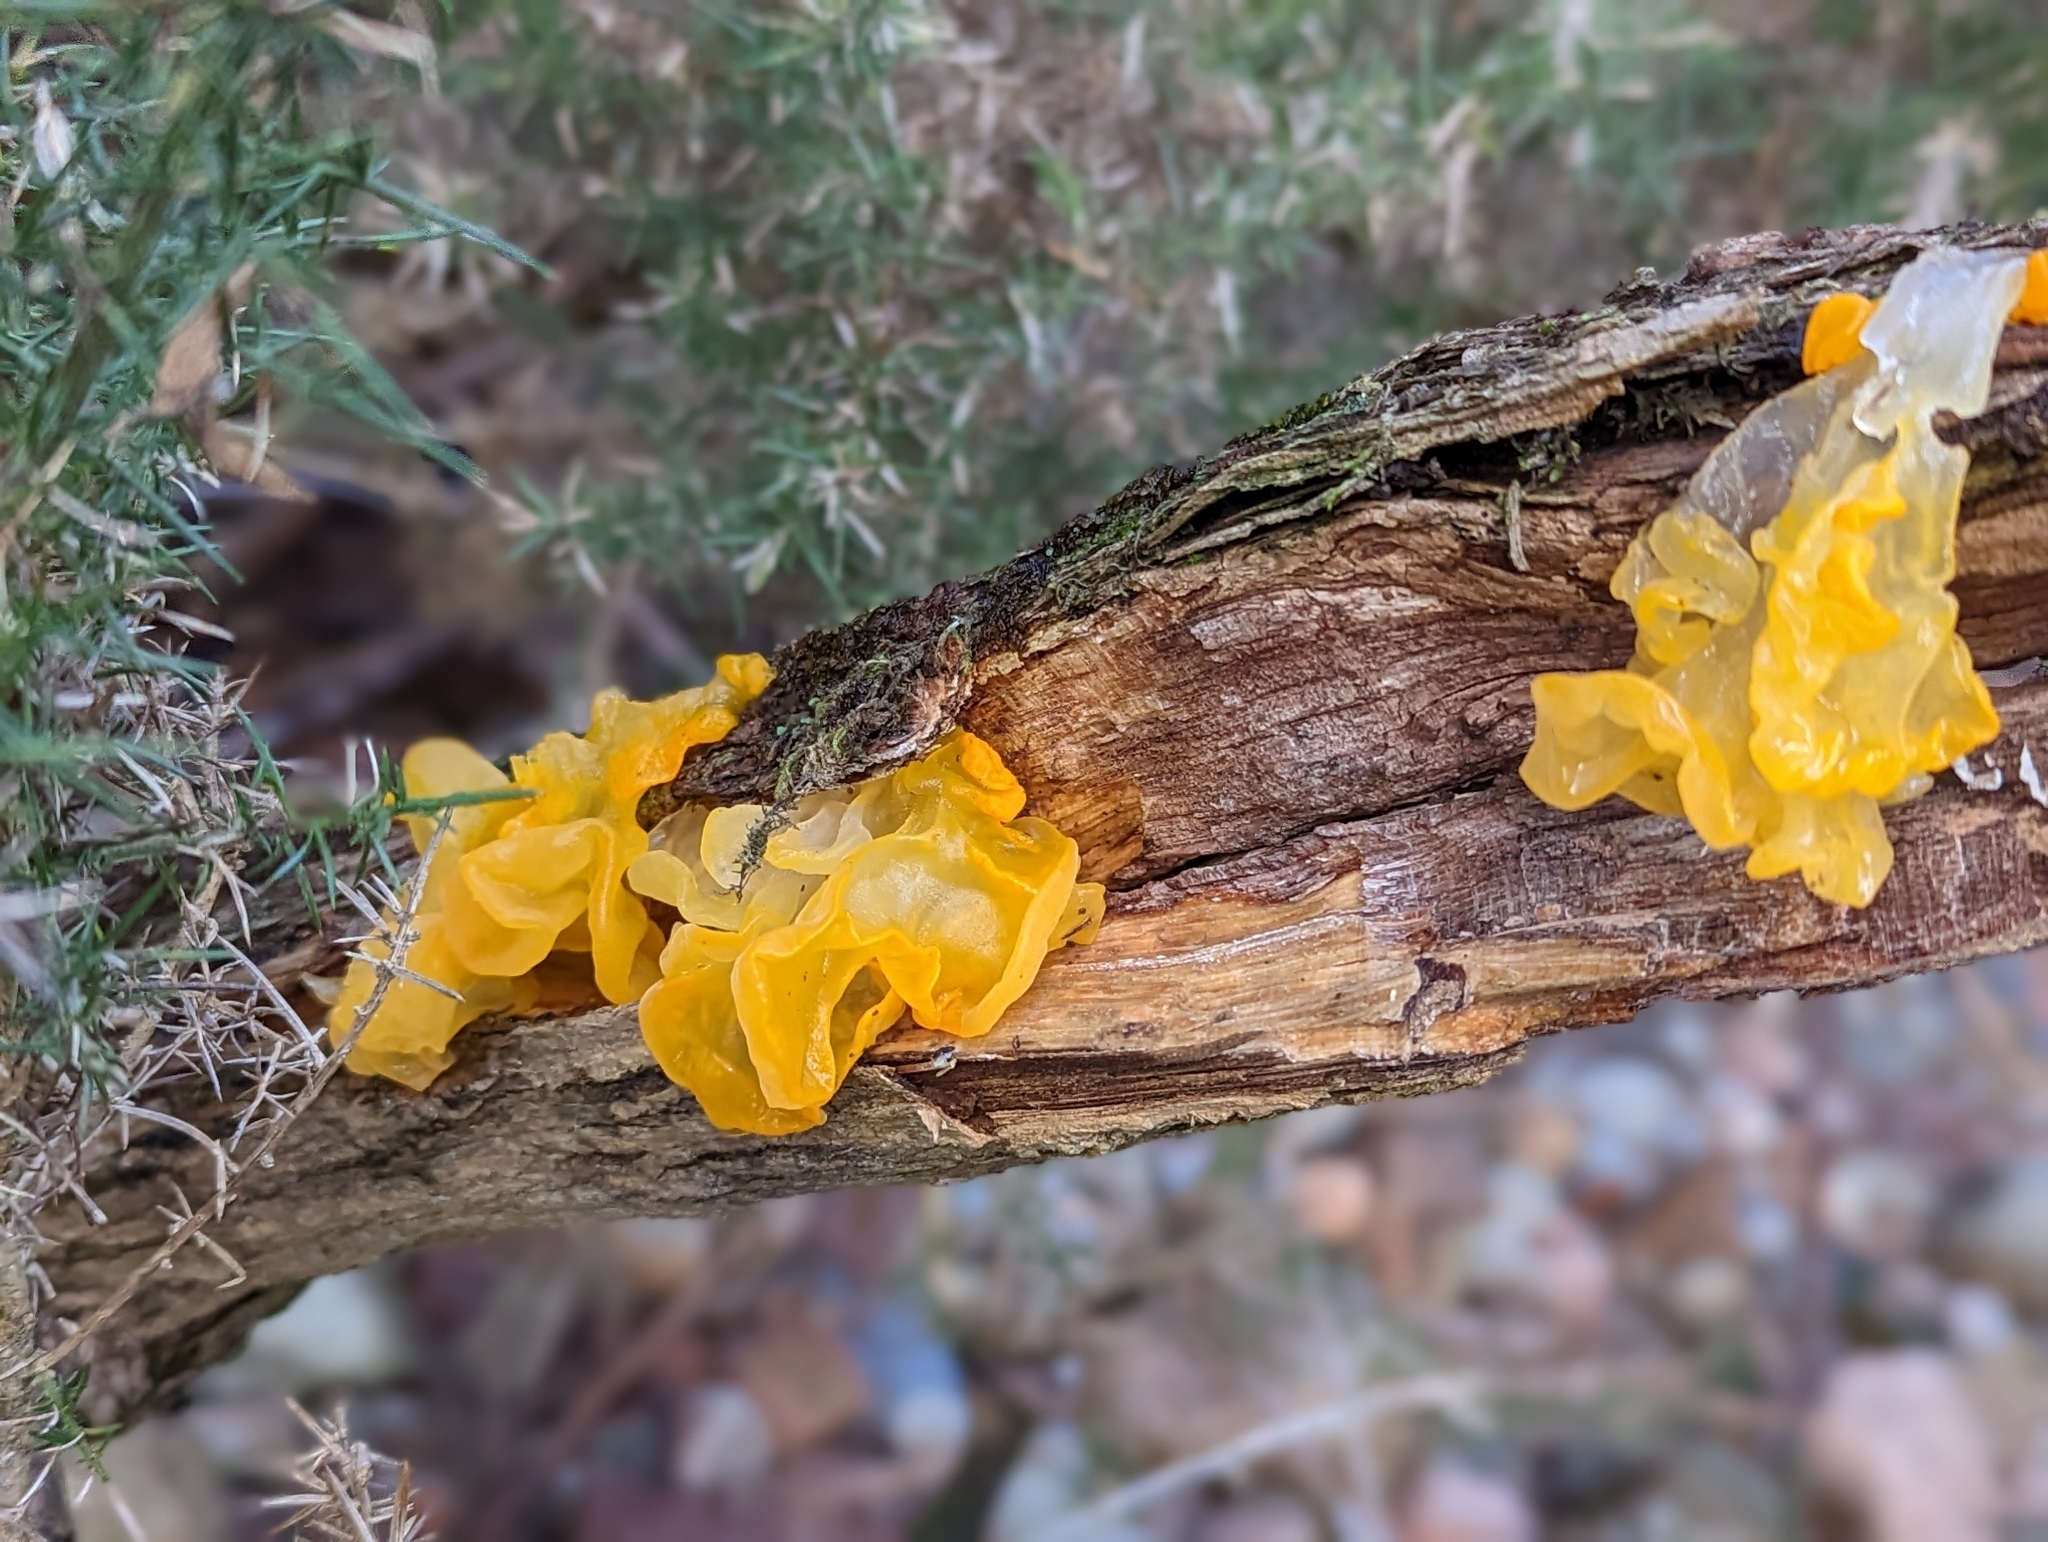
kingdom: Fungi
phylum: Basidiomycota
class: Tremellomycetes
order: Tremellales
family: Tremellaceae
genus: Tremella
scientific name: Tremella mesenterica
